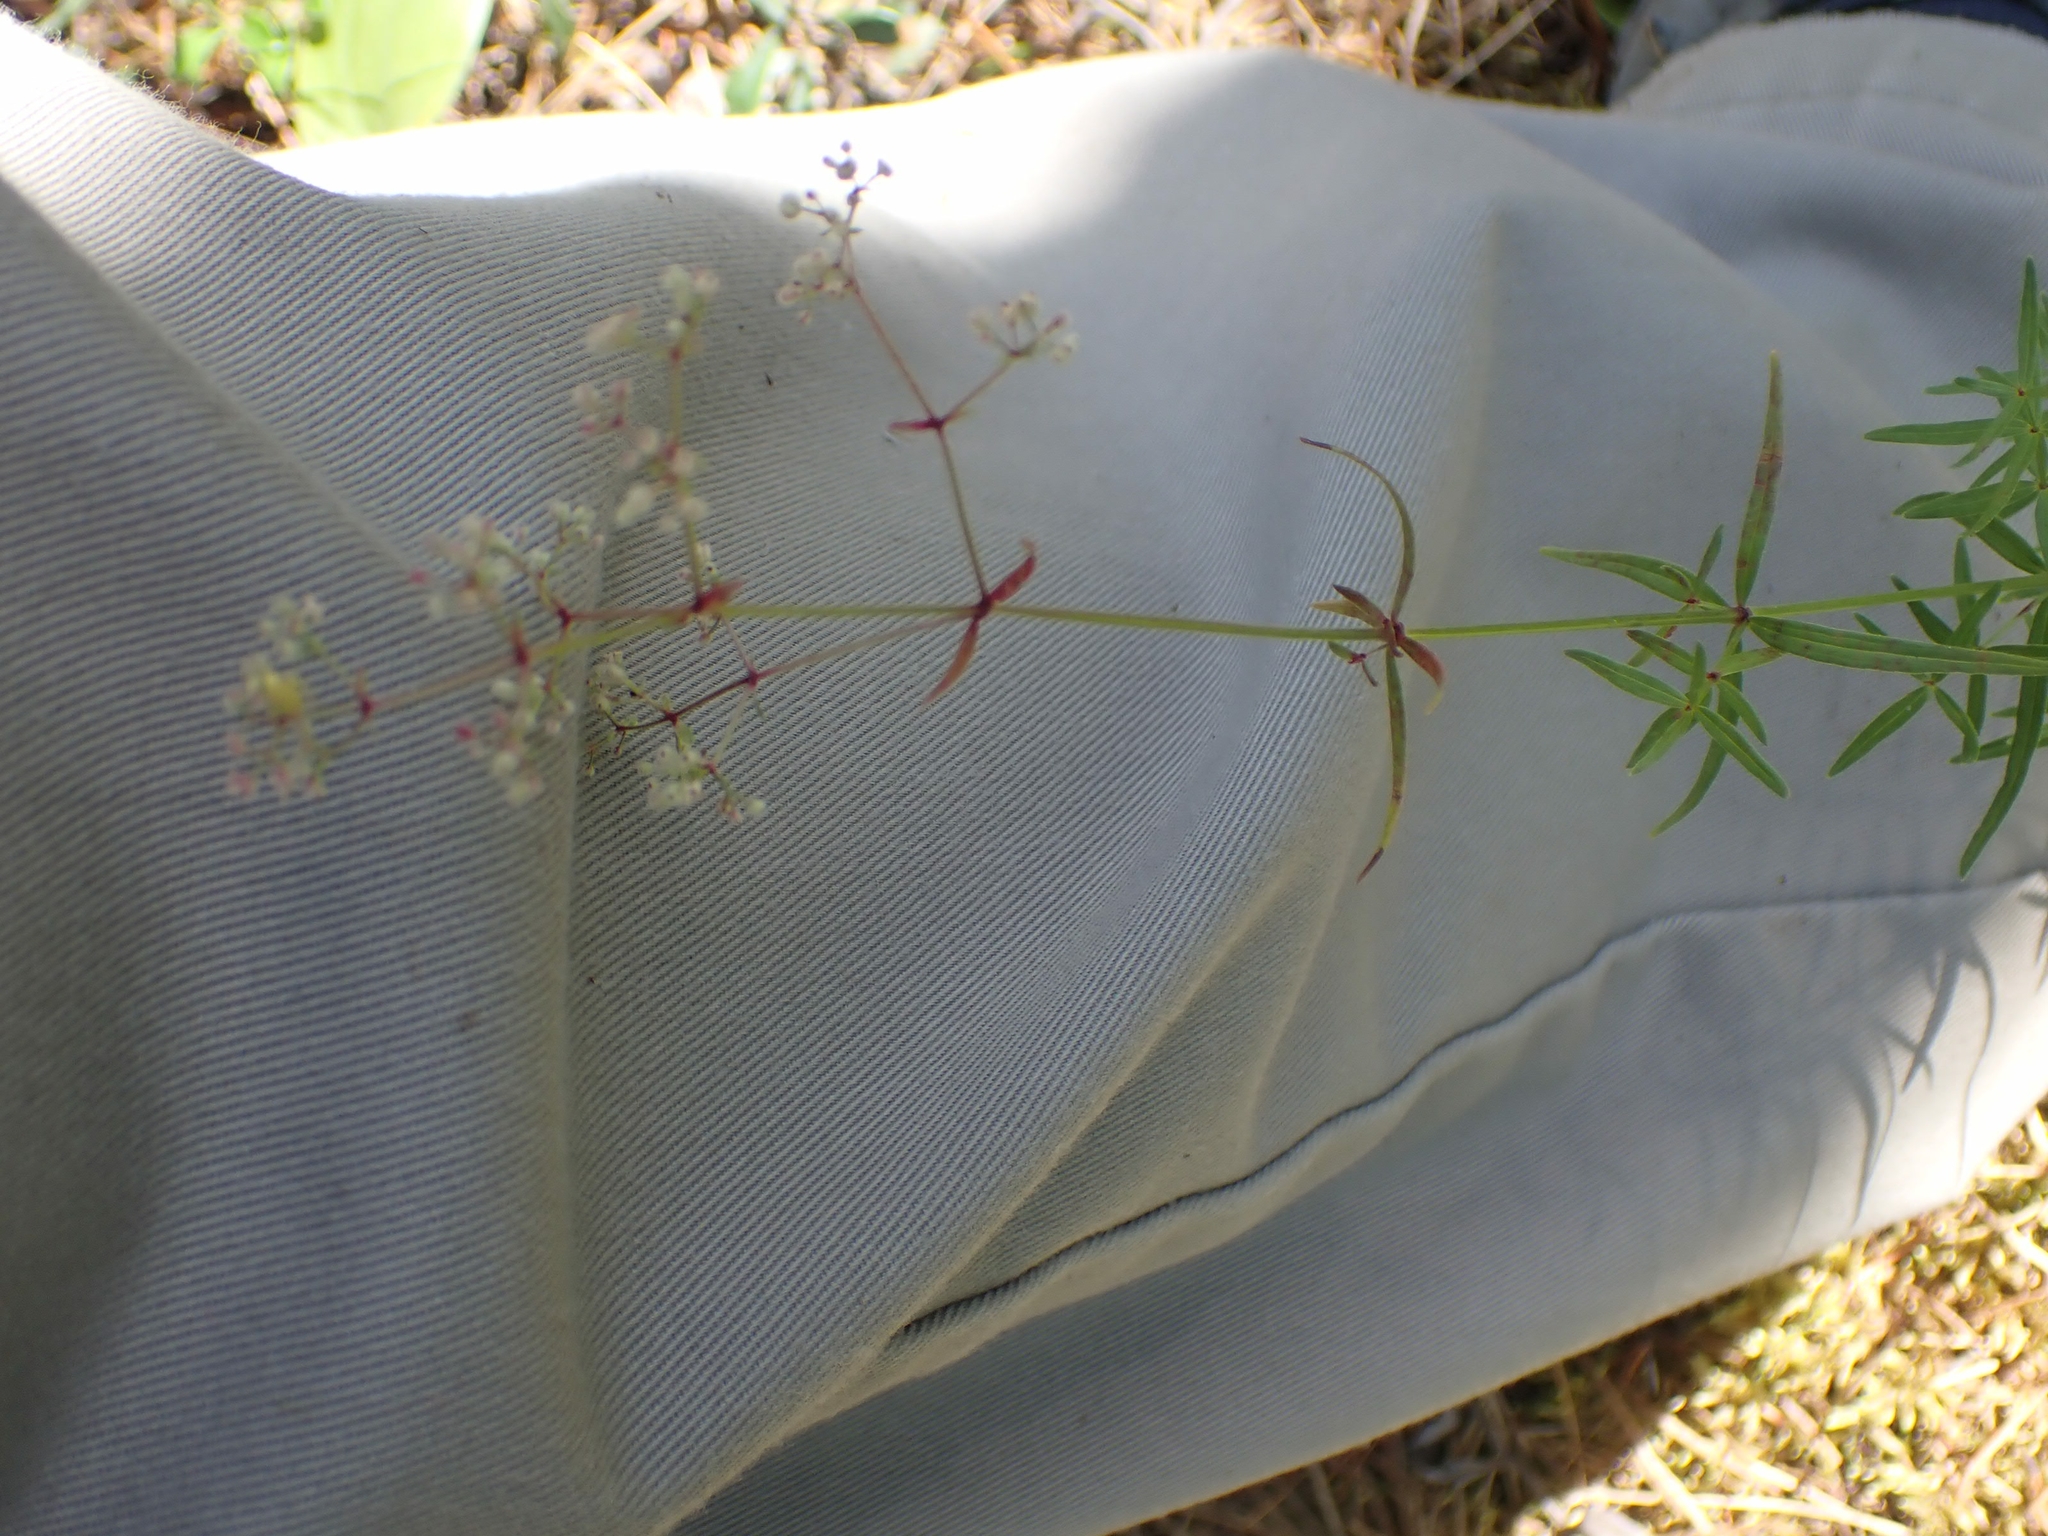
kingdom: Plantae
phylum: Tracheophyta
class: Magnoliopsida
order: Gentianales
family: Rubiaceae
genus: Galium
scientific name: Galium boreale
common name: Northern bedstraw
